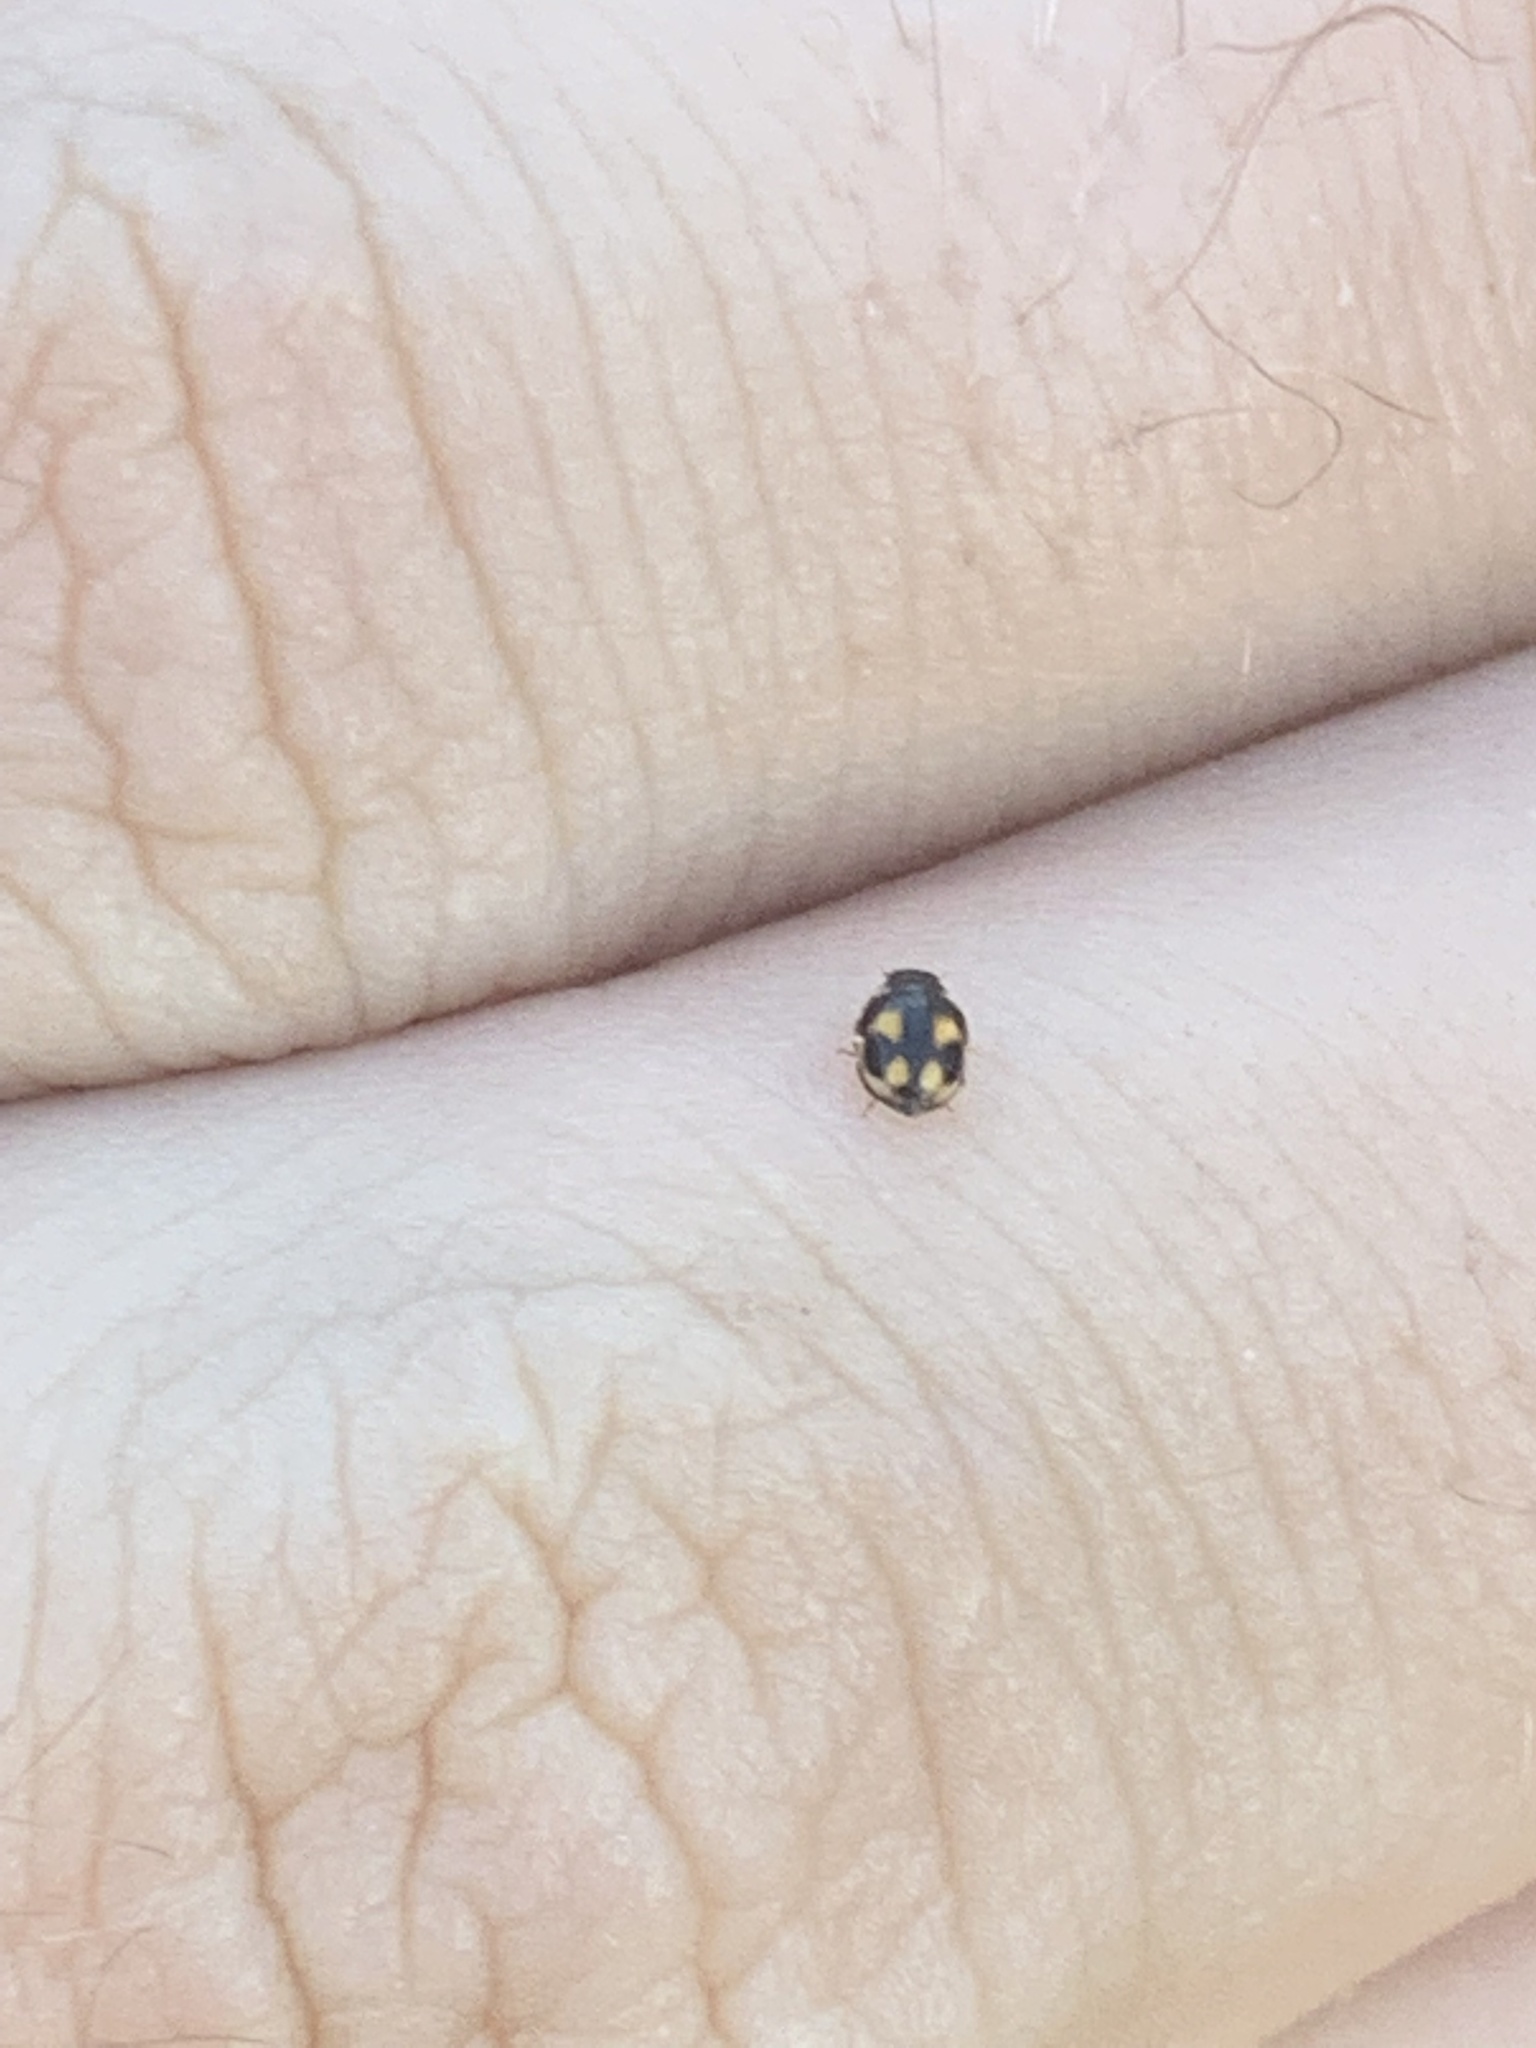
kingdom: Animalia
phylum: Arthropoda
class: Insecta
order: Coleoptera
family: Coccinellidae
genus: Hyperaspis
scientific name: Hyperaspis festiva
